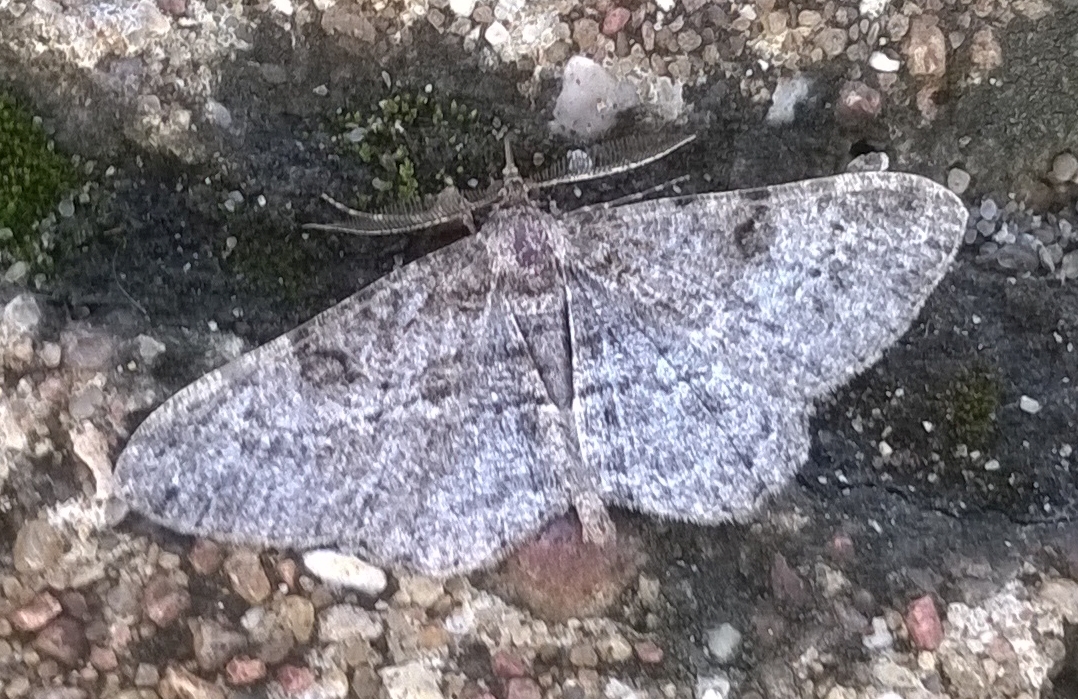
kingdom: Animalia
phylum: Arthropoda
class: Insecta
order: Lepidoptera
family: Geometridae
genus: Peribatodes
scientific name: Peribatodes rhomboidaria
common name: Willow beauty
